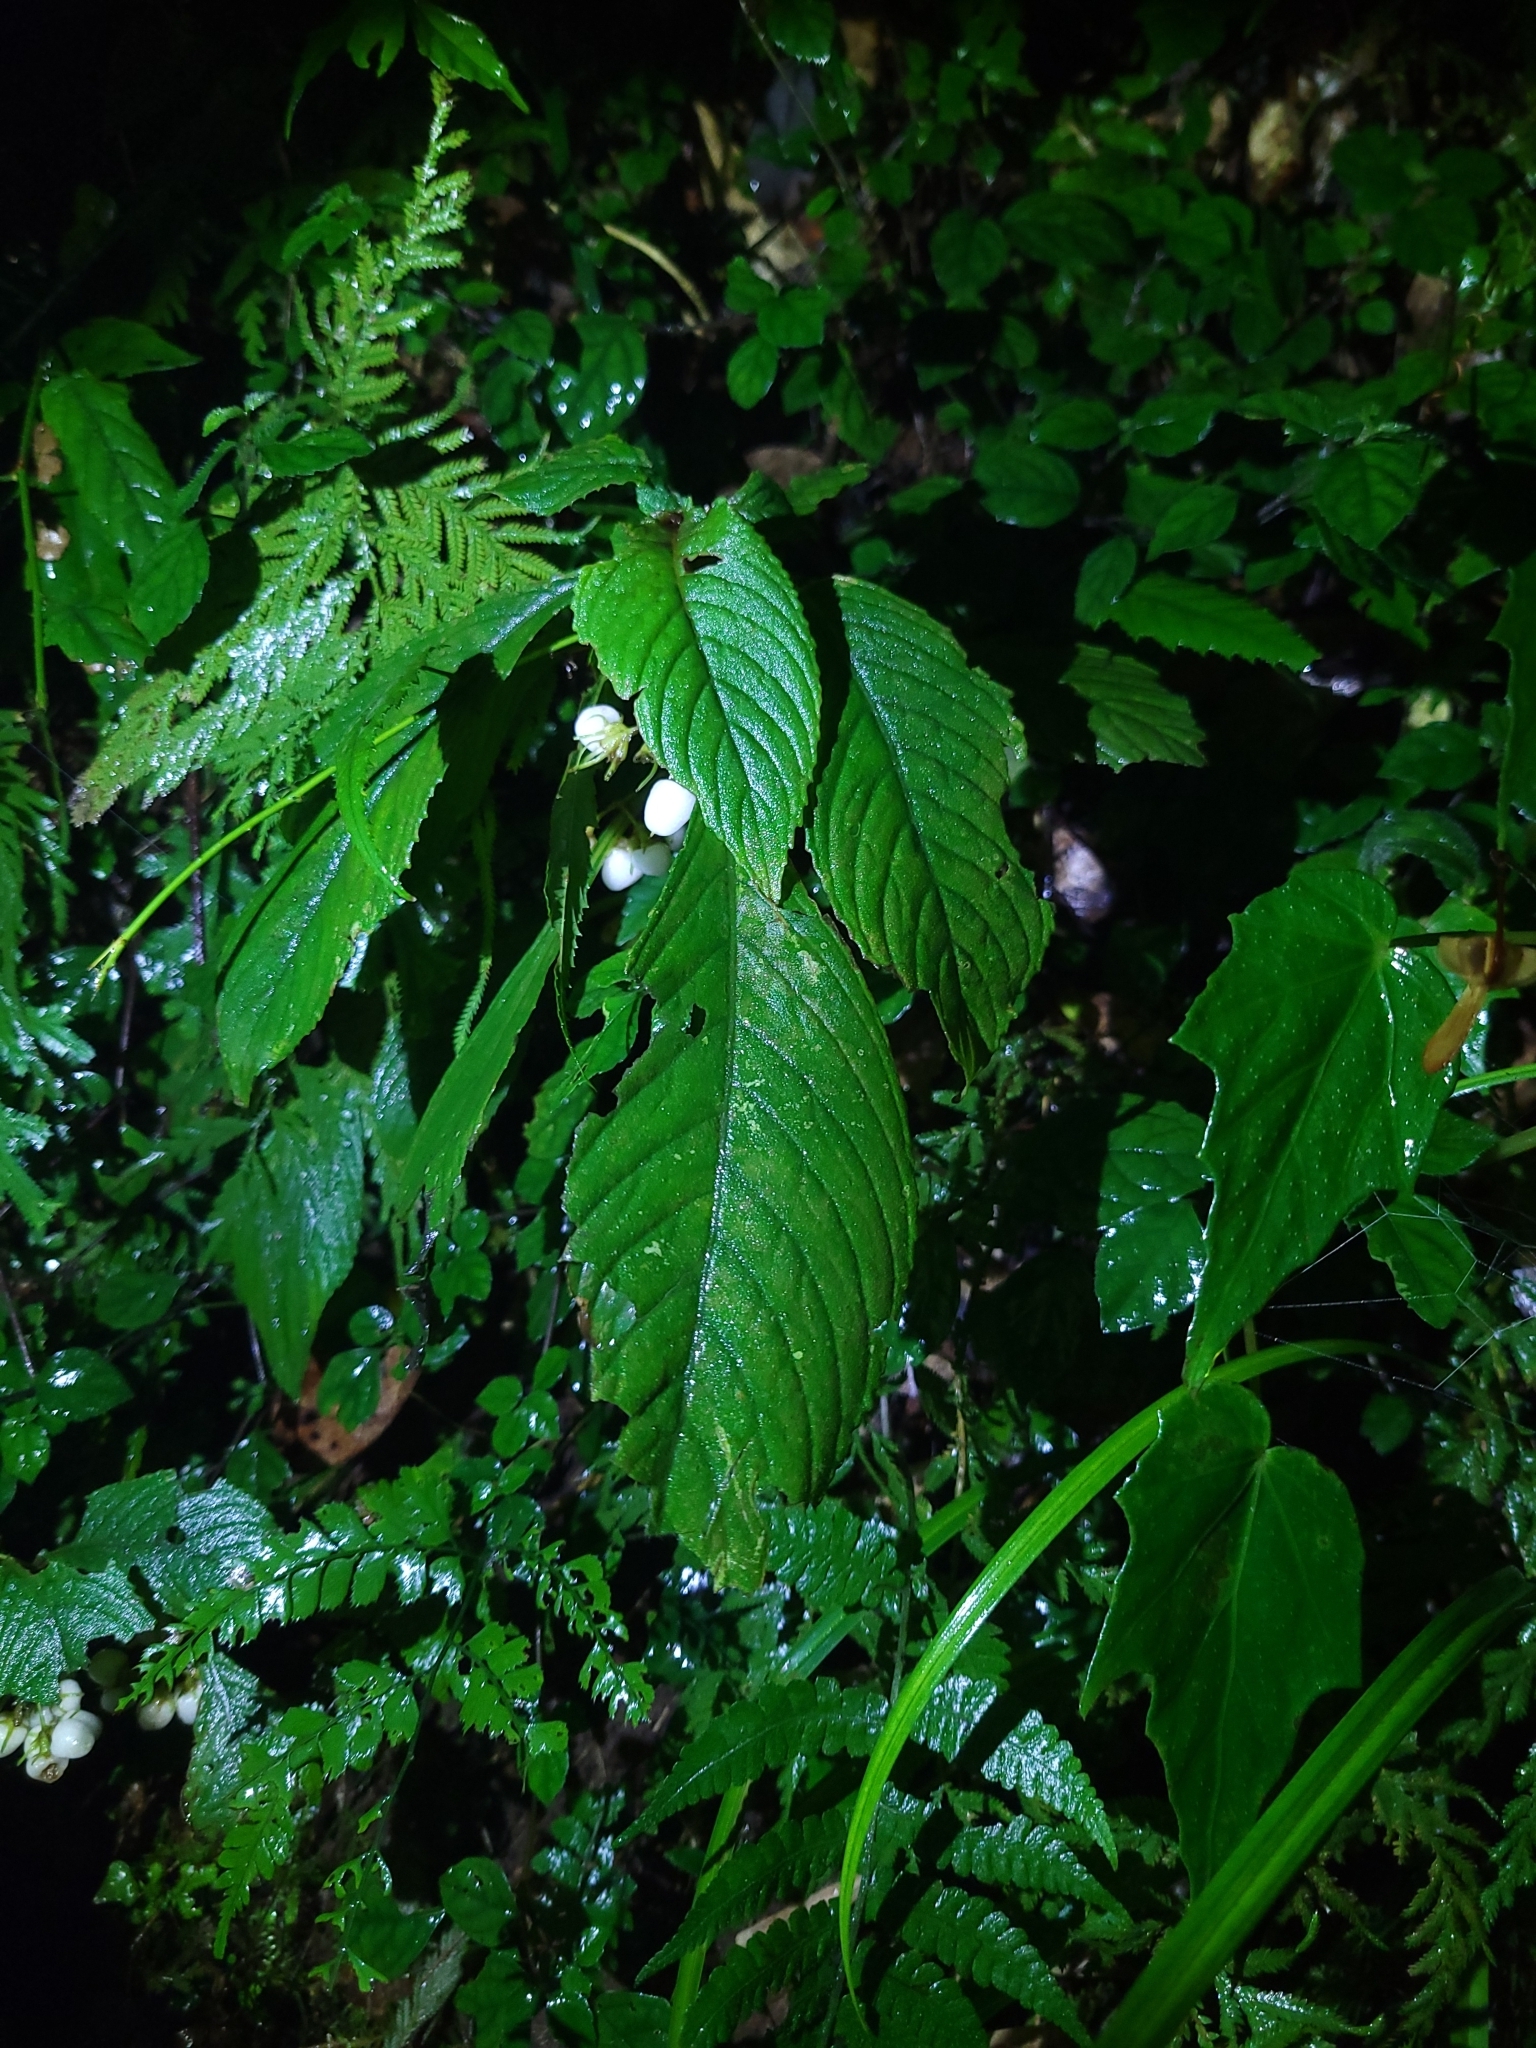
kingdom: Plantae
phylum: Tracheophyta
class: Magnoliopsida
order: Lamiales
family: Gesneriaceae
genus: Rhynchotechum
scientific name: Rhynchotechum discolor
